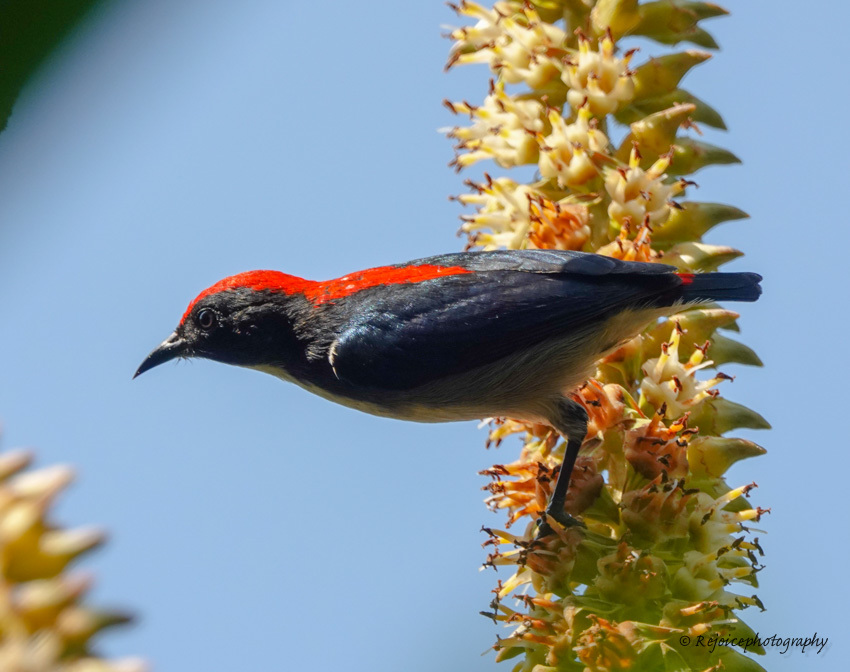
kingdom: Animalia
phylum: Chordata
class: Aves
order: Passeriformes
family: Dicaeidae
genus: Dicaeum
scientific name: Dicaeum cruentatum
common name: Scarlet-backed flowerpecker
